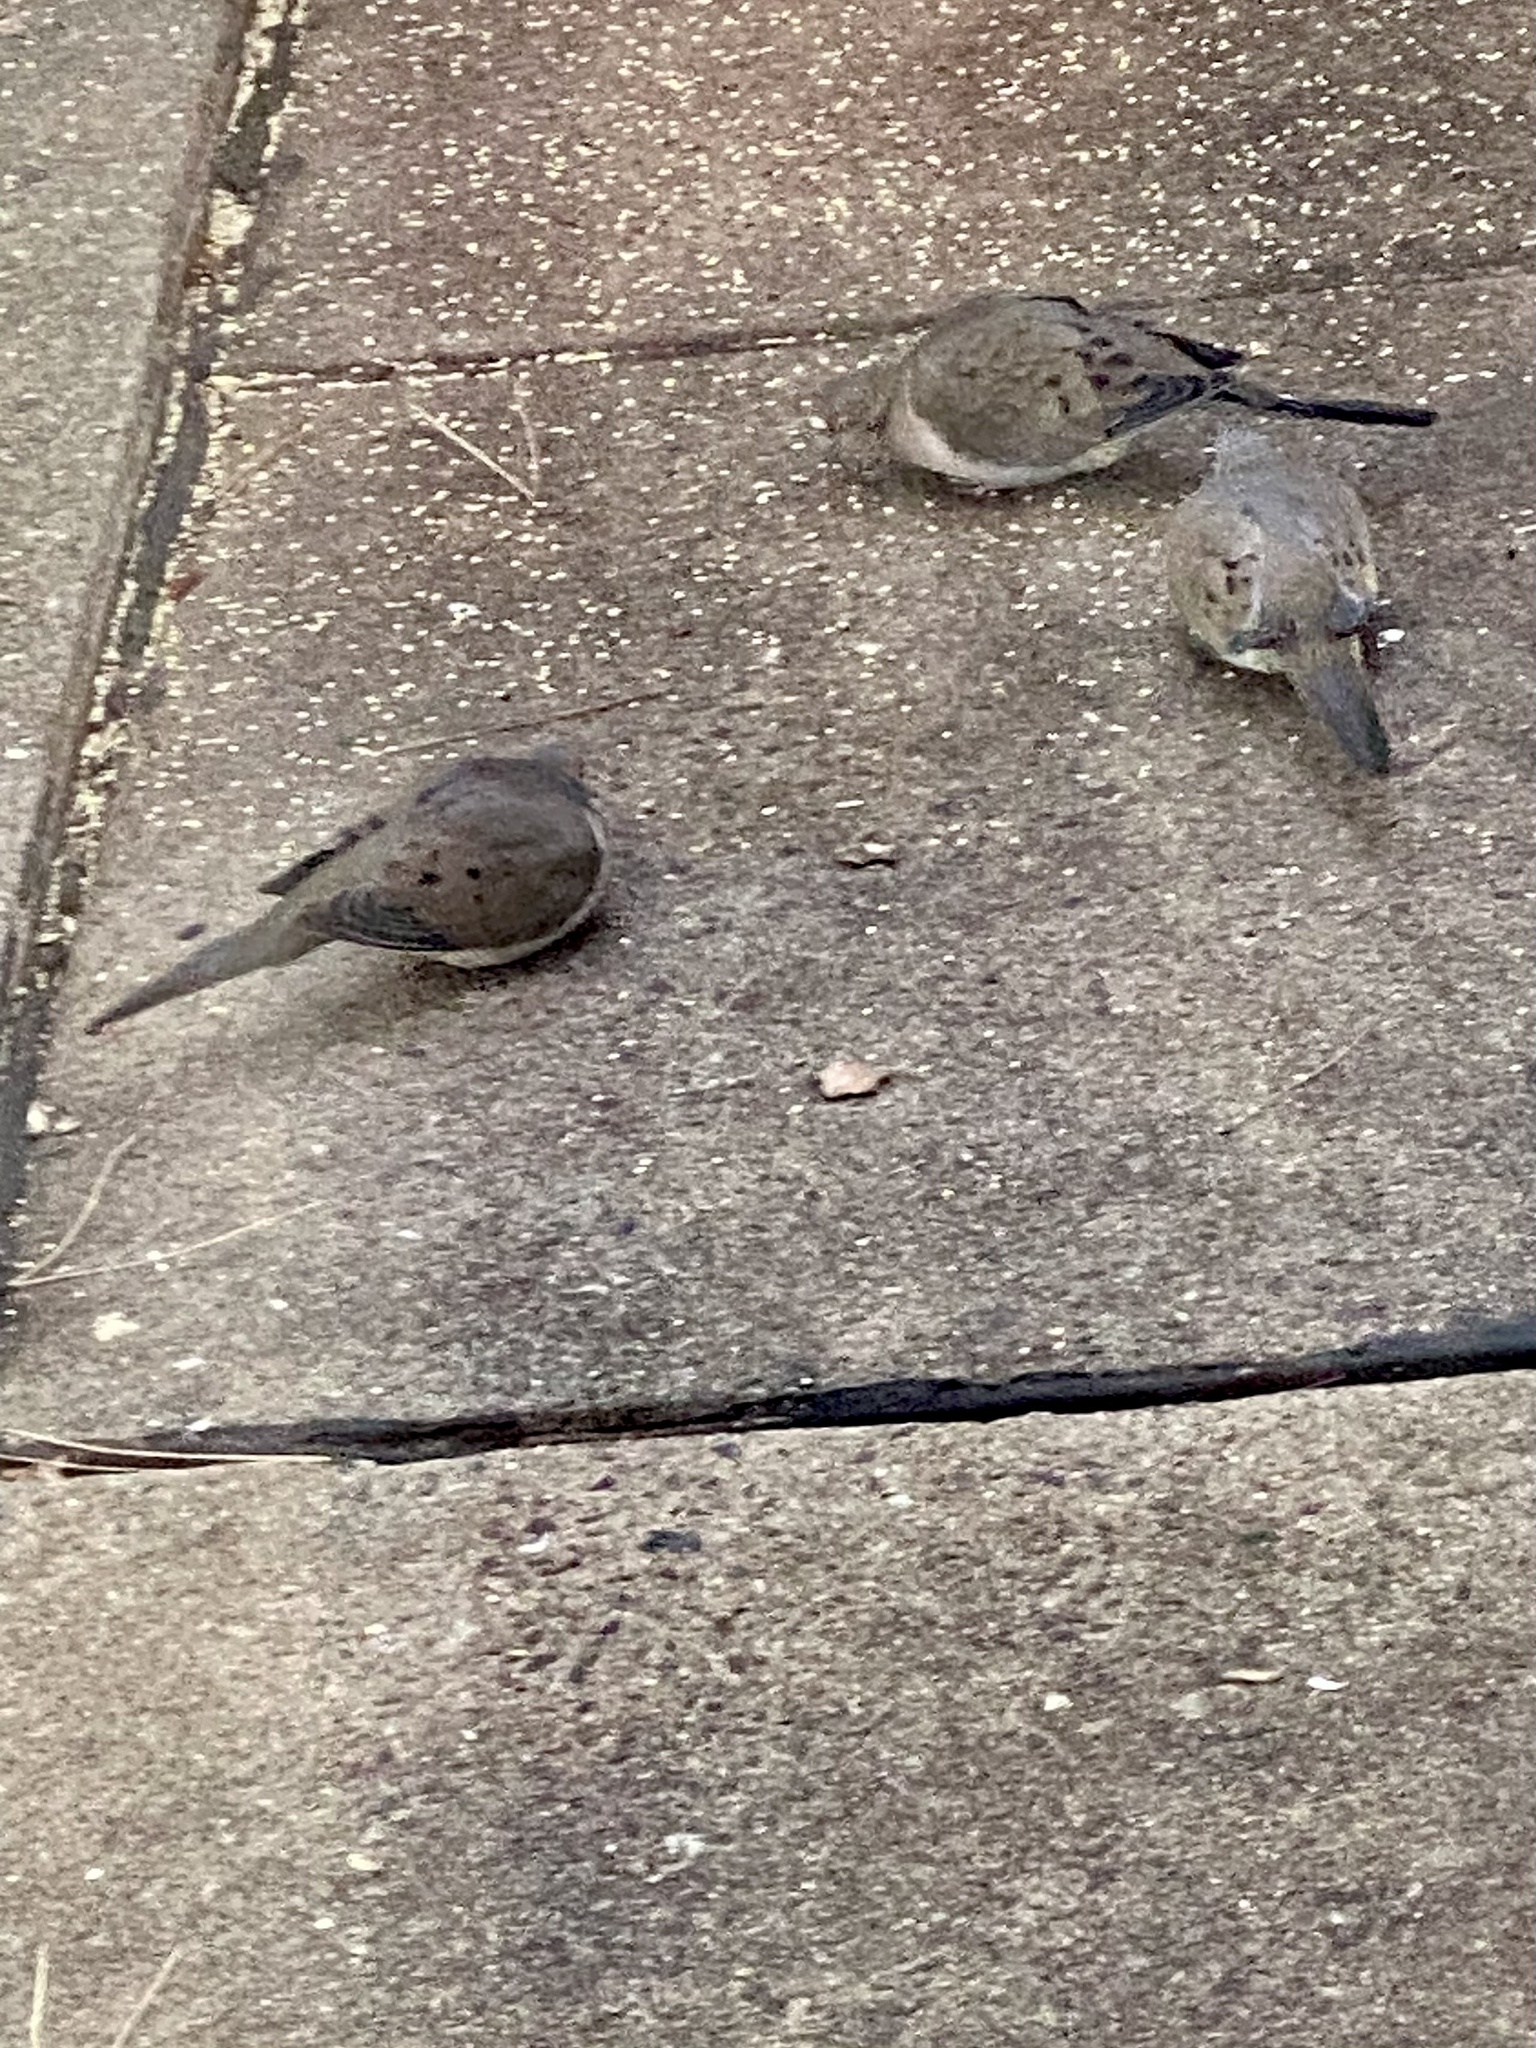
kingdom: Animalia
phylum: Chordata
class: Aves
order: Columbiformes
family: Columbidae
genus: Zenaida
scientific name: Zenaida macroura
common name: Mourning dove
